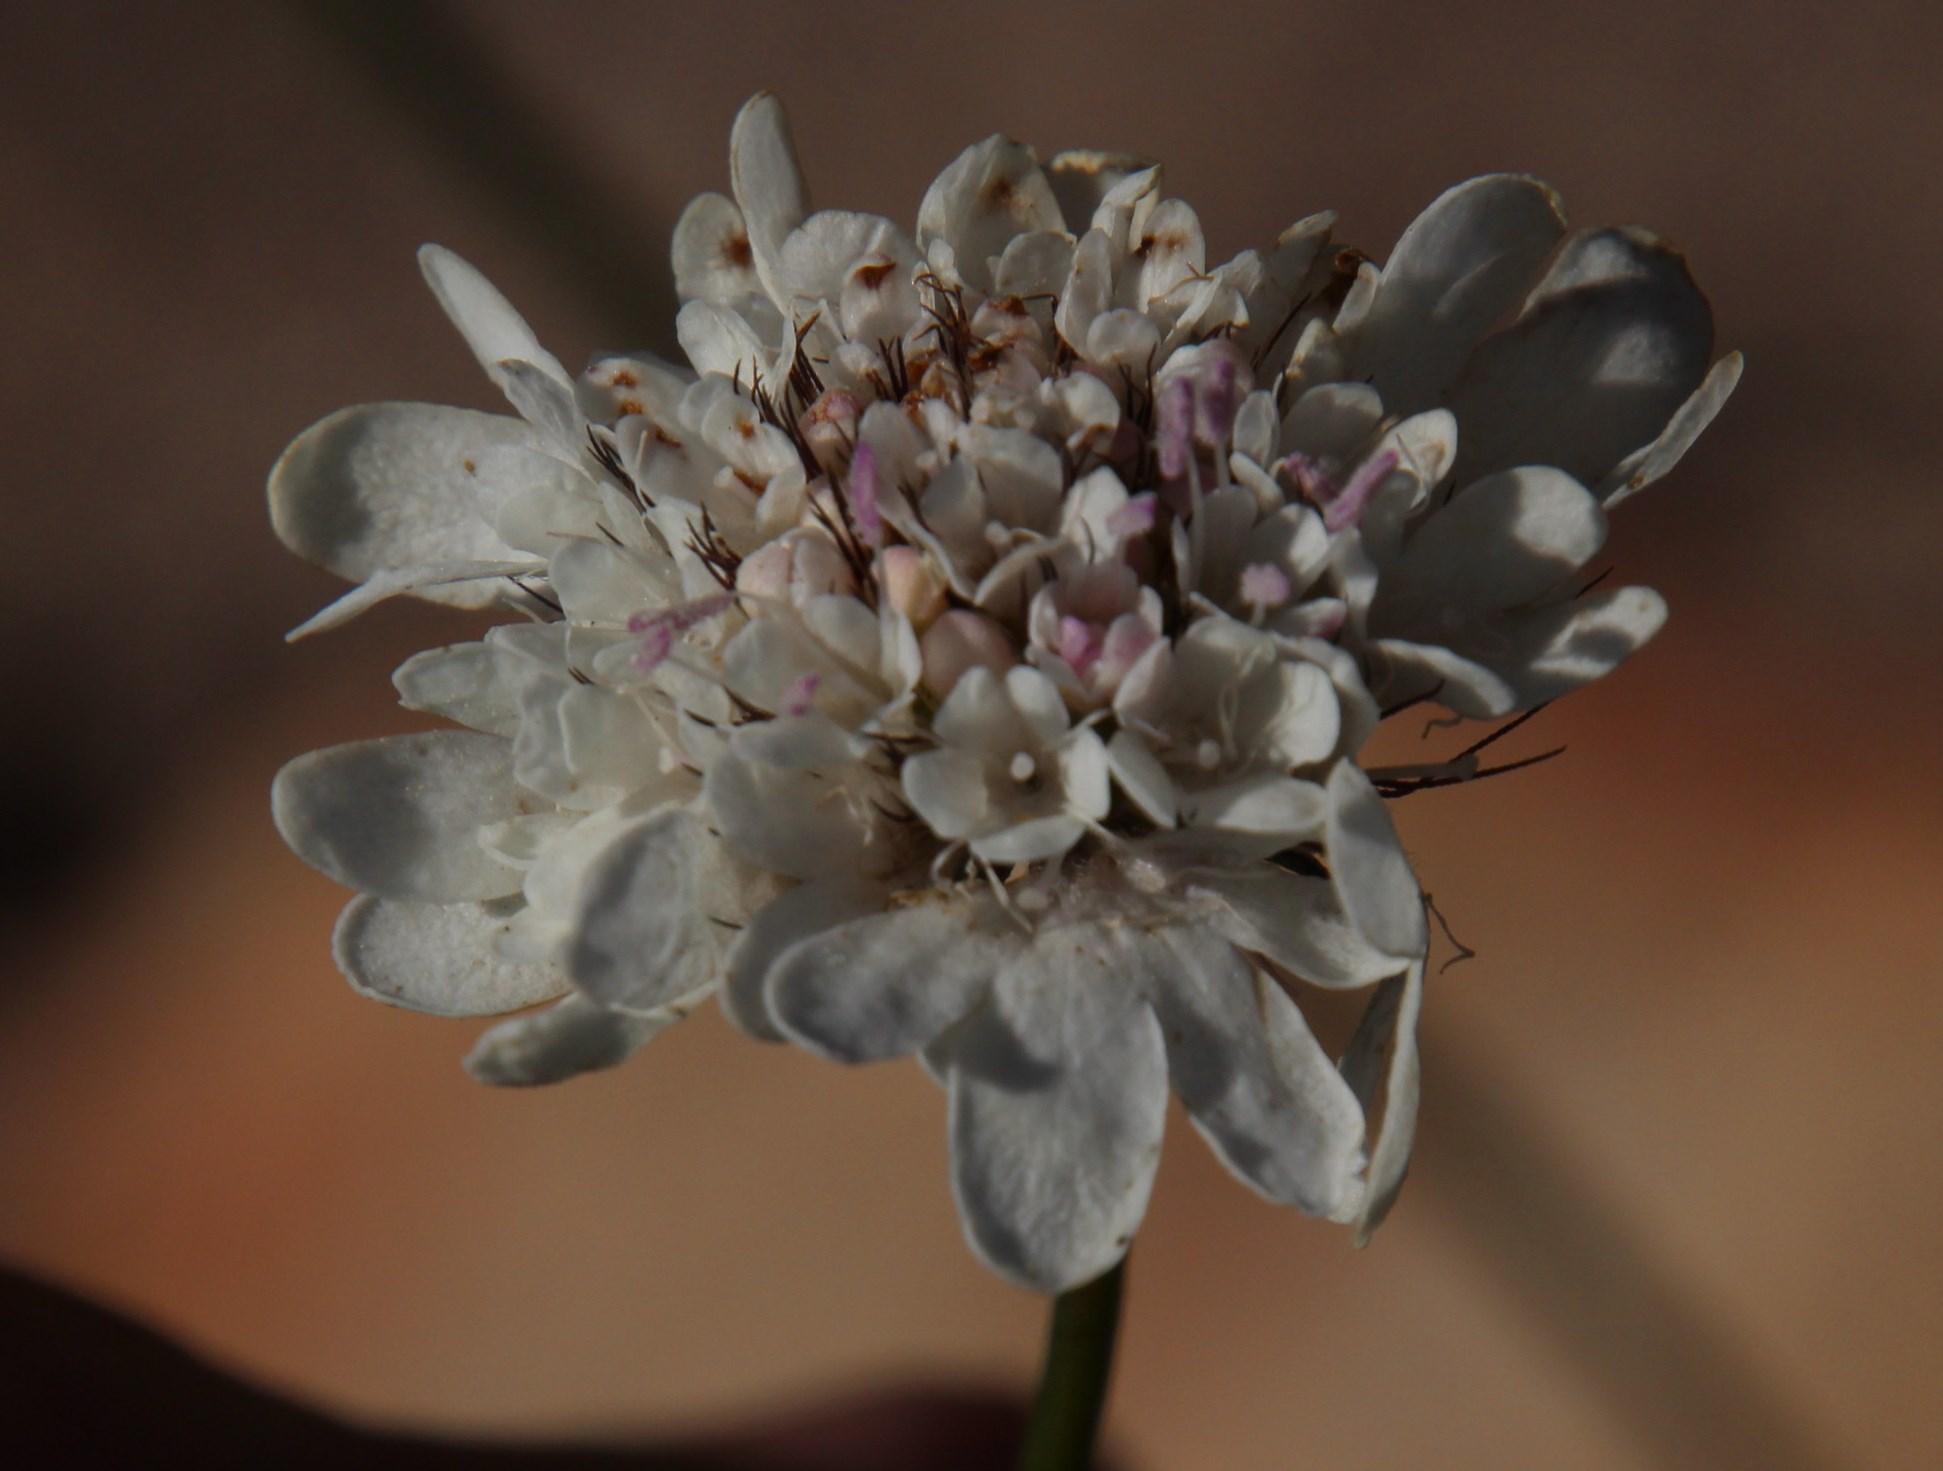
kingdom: Plantae
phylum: Tracheophyta
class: Magnoliopsida
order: Dipsacales
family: Caprifoliaceae
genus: Scabiosa
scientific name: Scabiosa columbaria
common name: Small scabious
